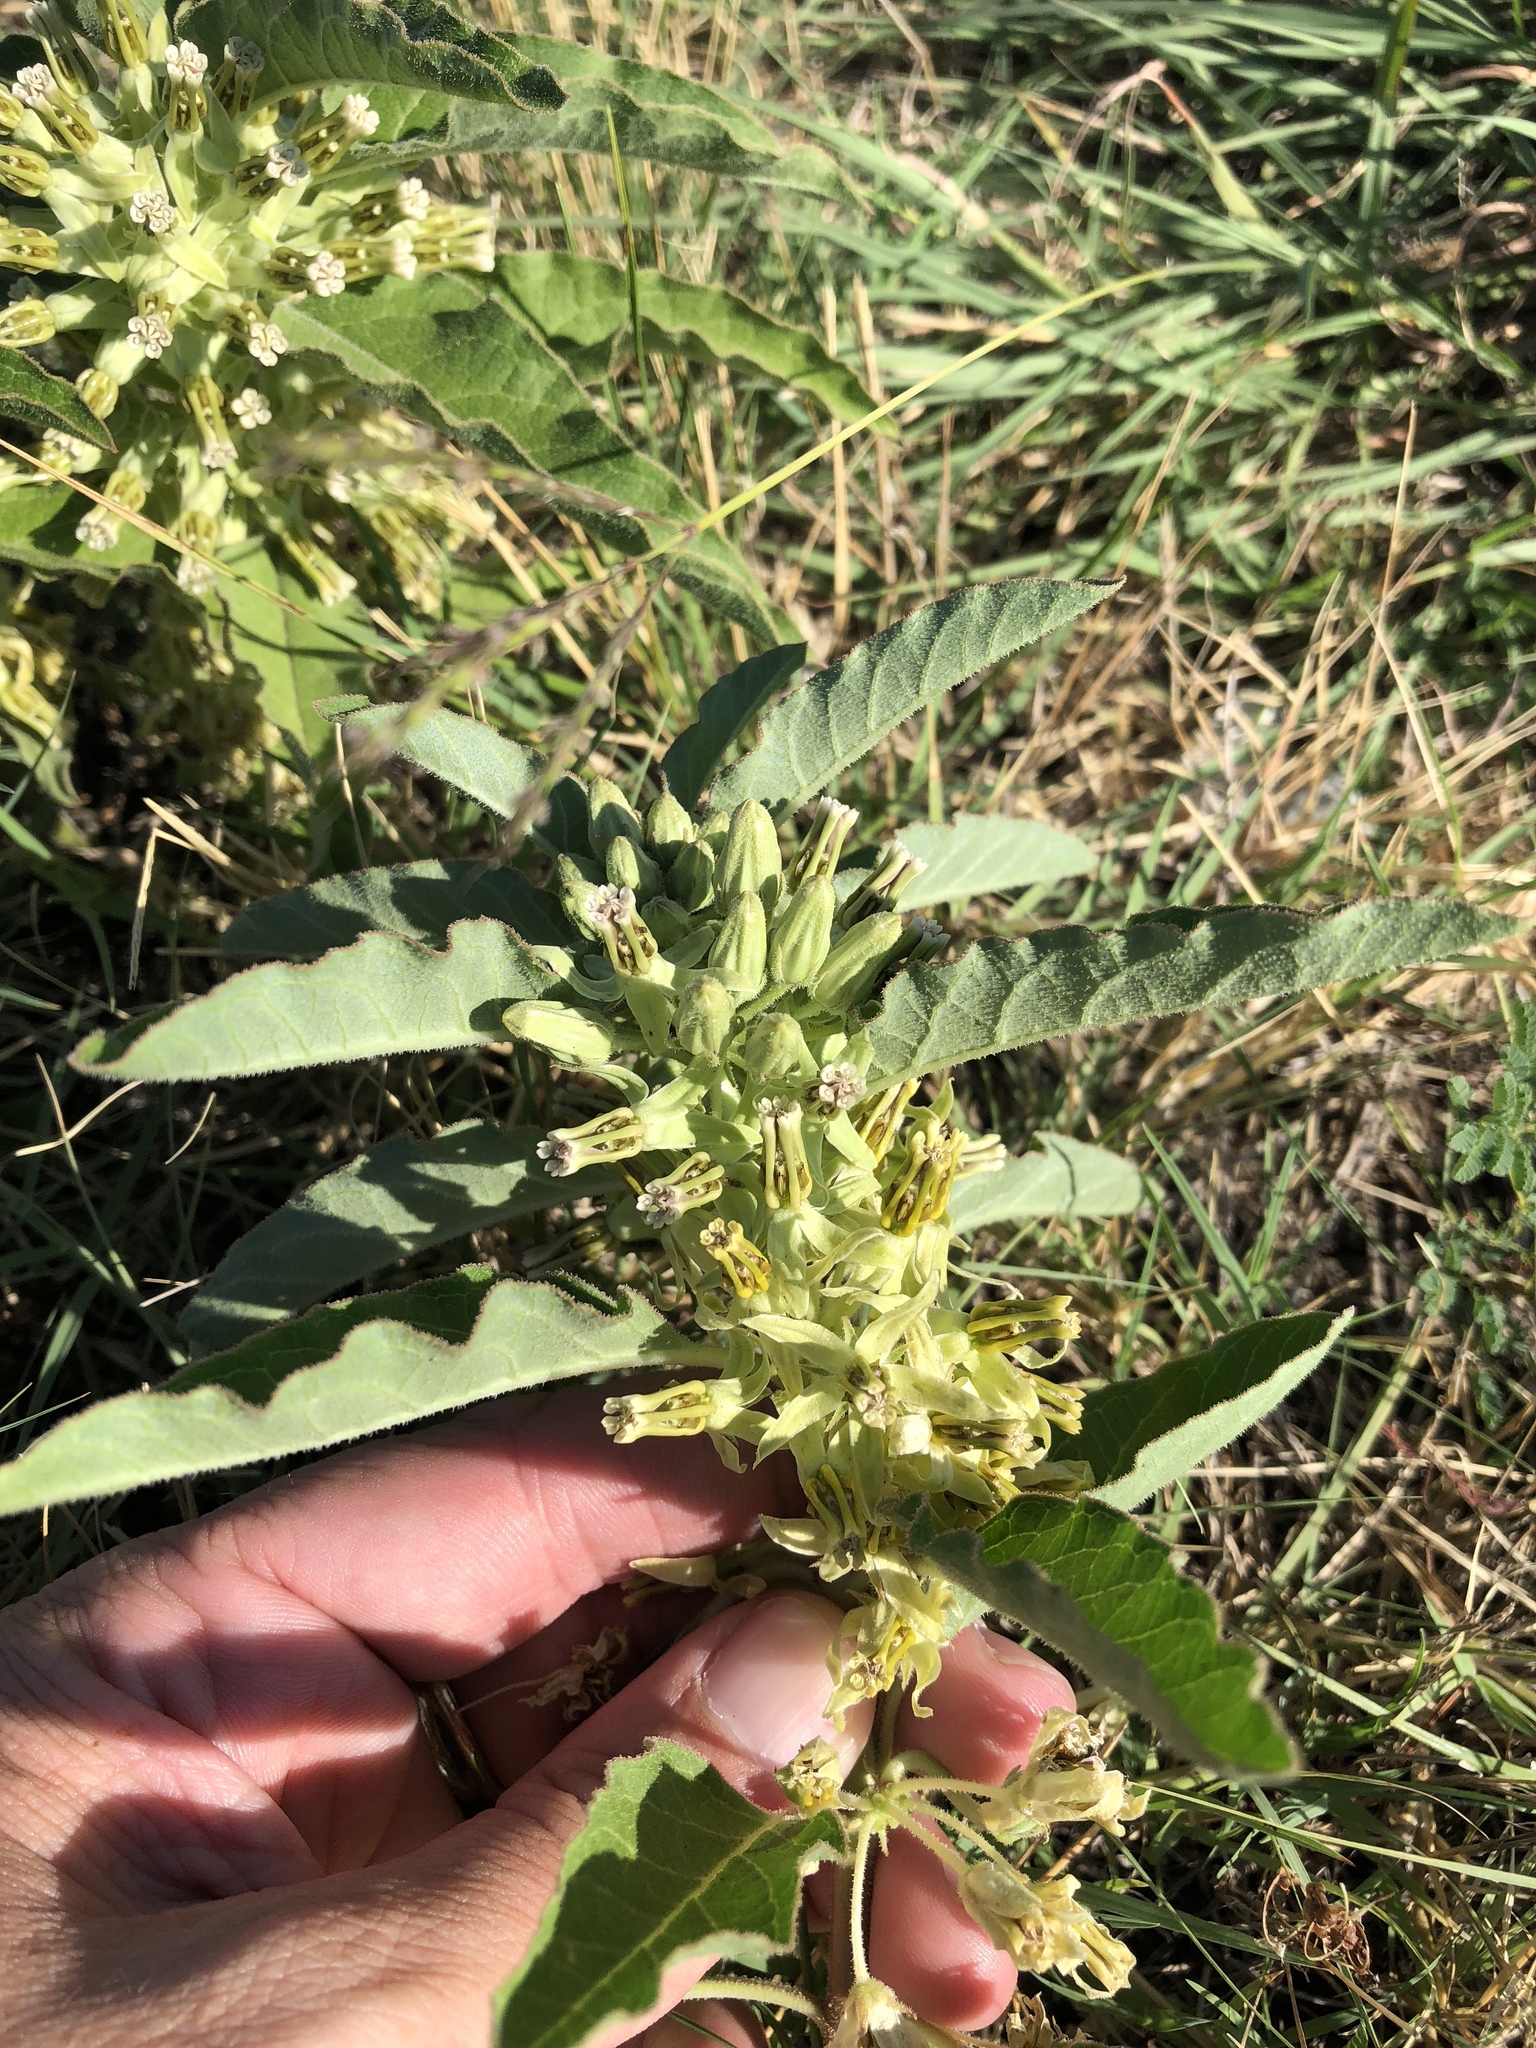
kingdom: Plantae
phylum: Tracheophyta
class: Magnoliopsida
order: Gentianales
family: Apocynaceae
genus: Asclepias
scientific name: Asclepias oenotheroides
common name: Zizotes milkweed
